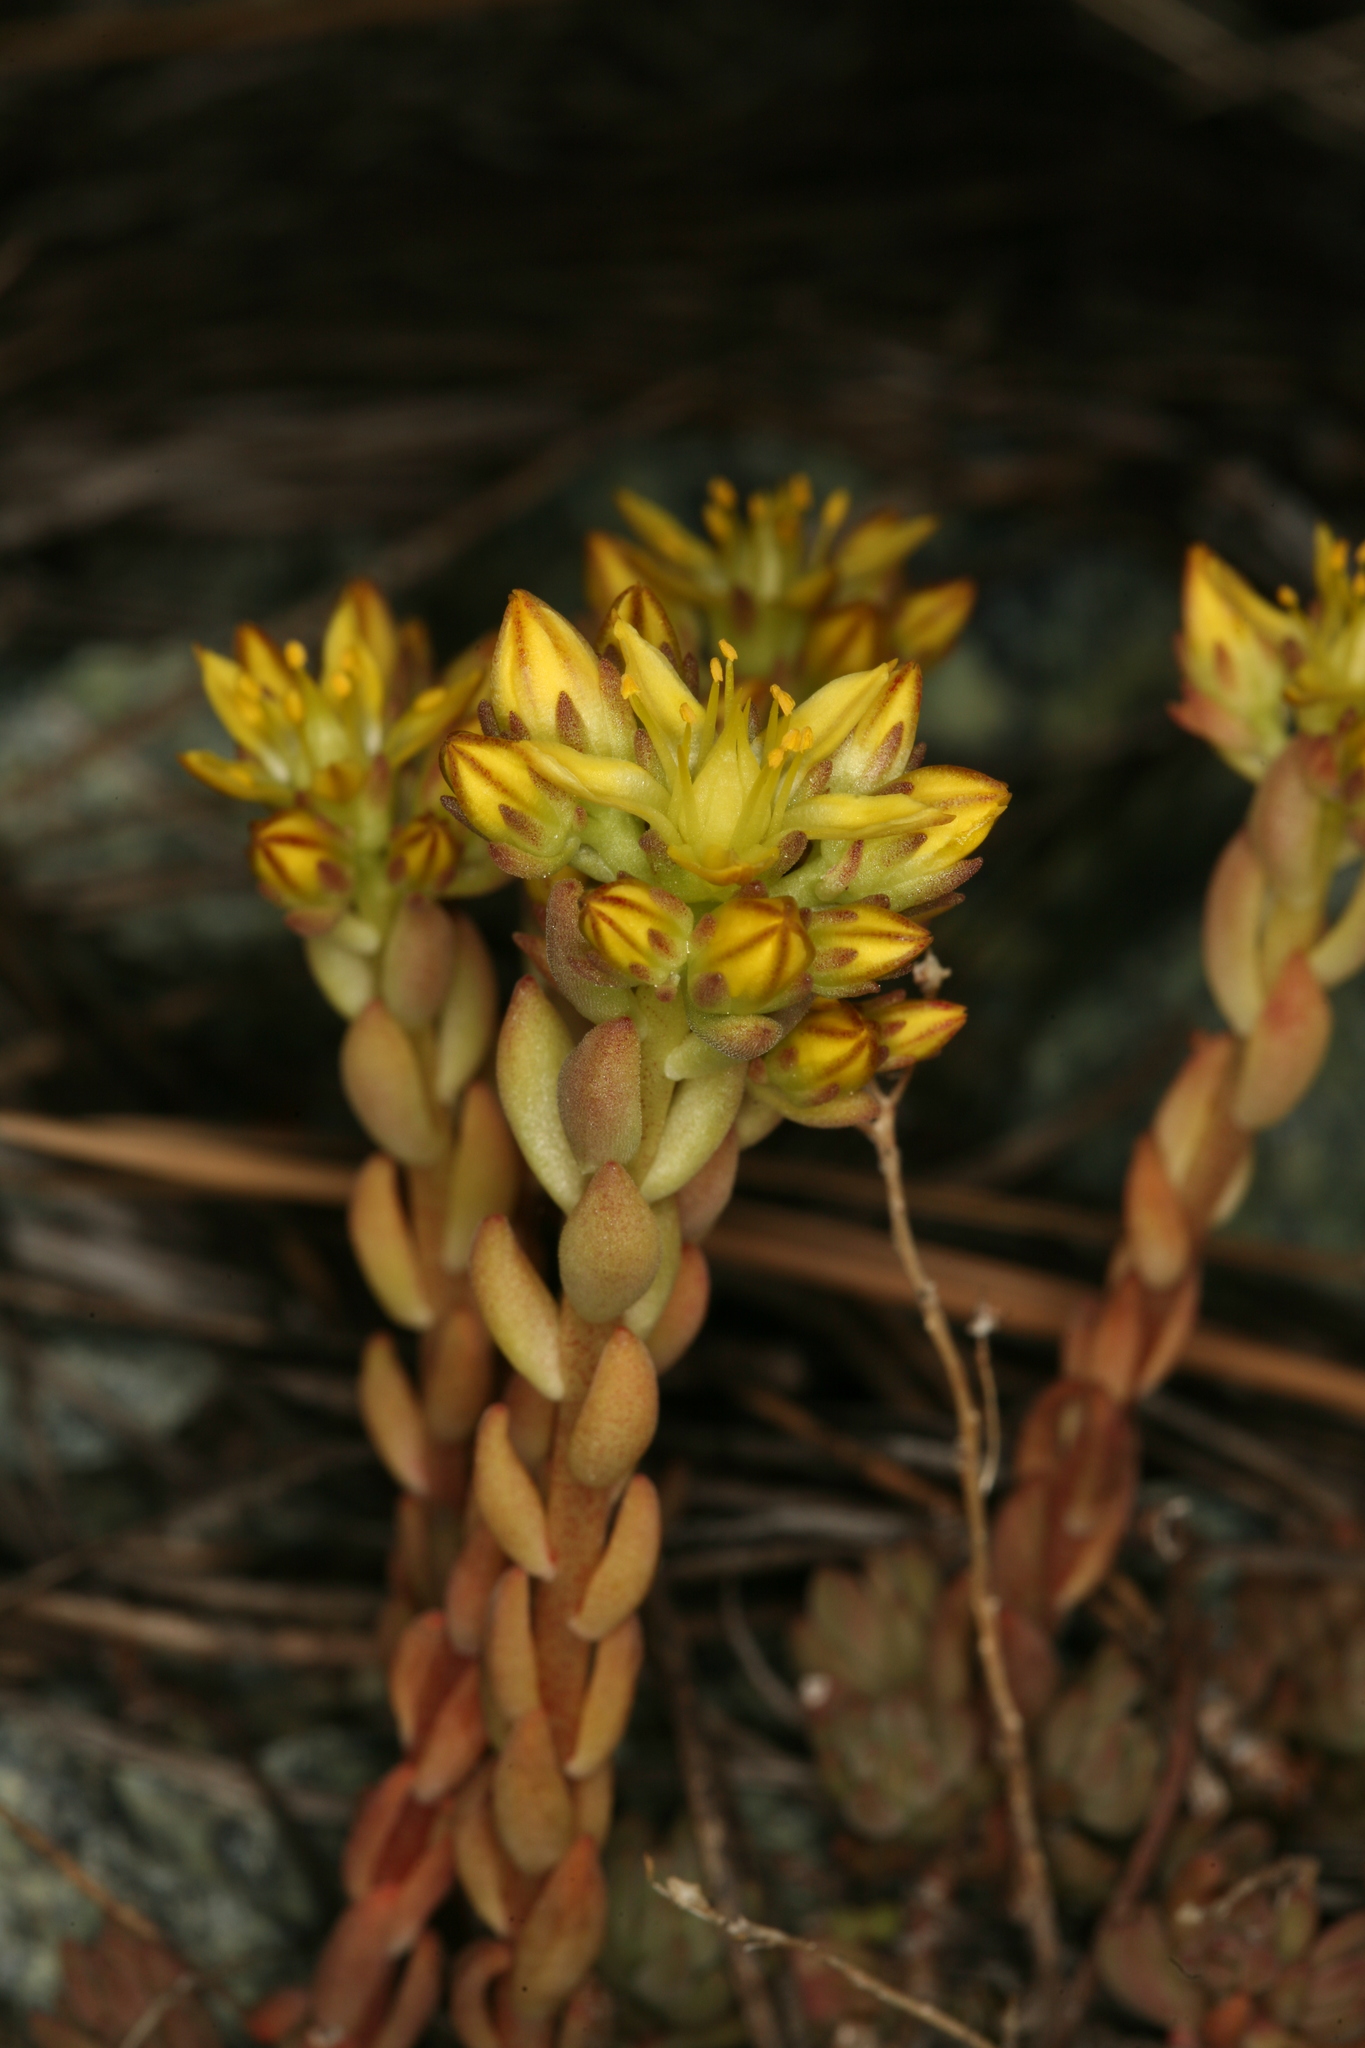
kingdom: Plantae
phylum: Tracheophyta
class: Magnoliopsida
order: Saxifragales
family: Crassulaceae
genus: Sedum
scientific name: Sedum lanceolatum
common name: Common stonecrop
